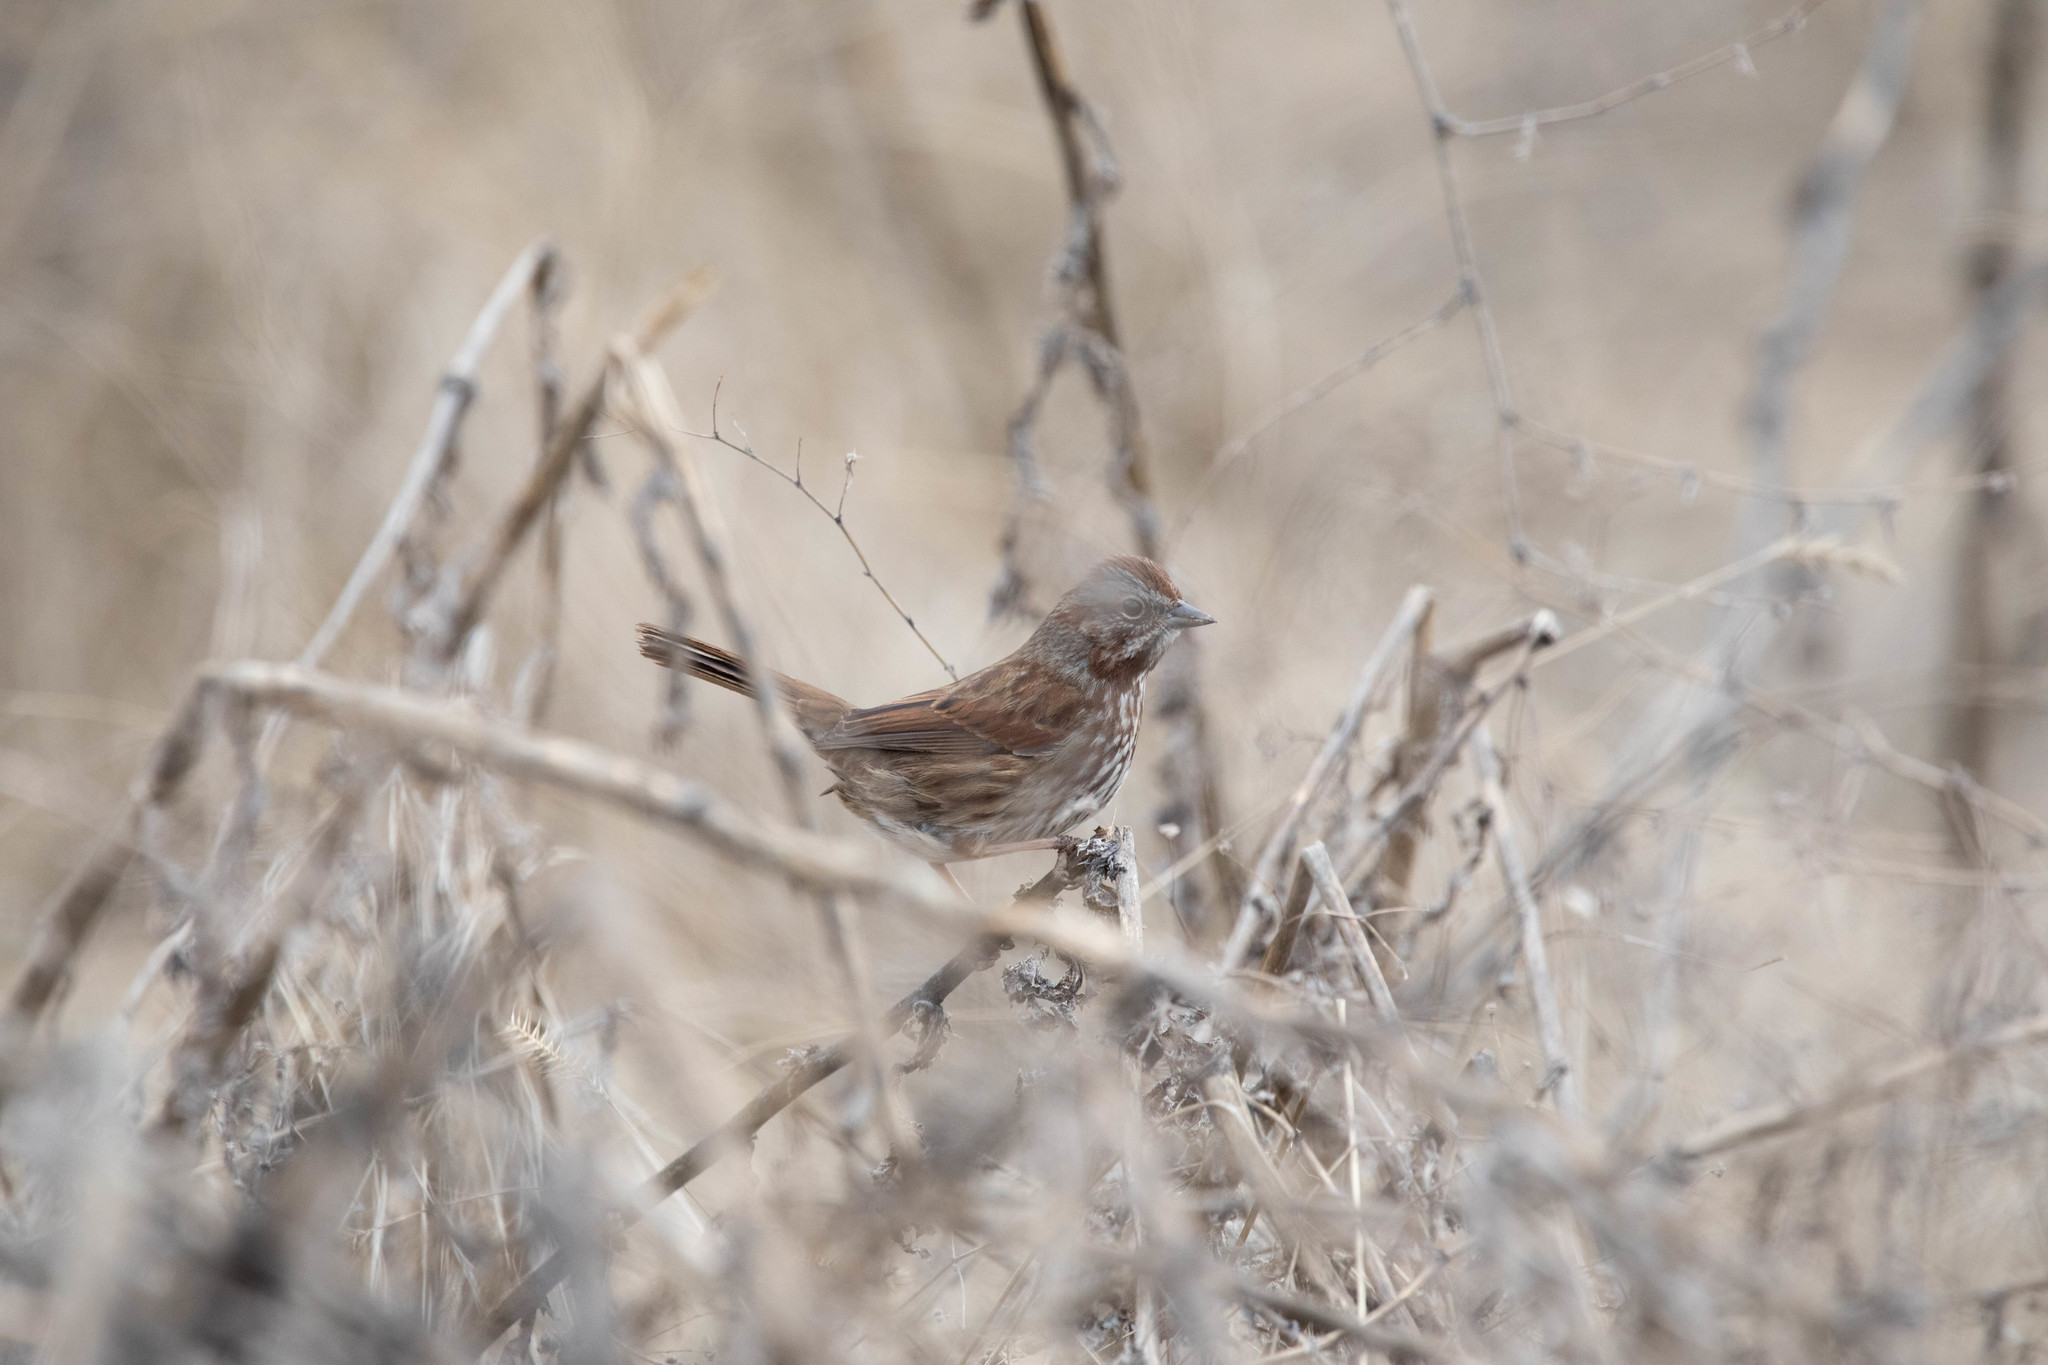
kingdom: Animalia
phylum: Chordata
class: Aves
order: Passeriformes
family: Passerellidae
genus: Melospiza
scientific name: Melospiza melodia
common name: Song sparrow
